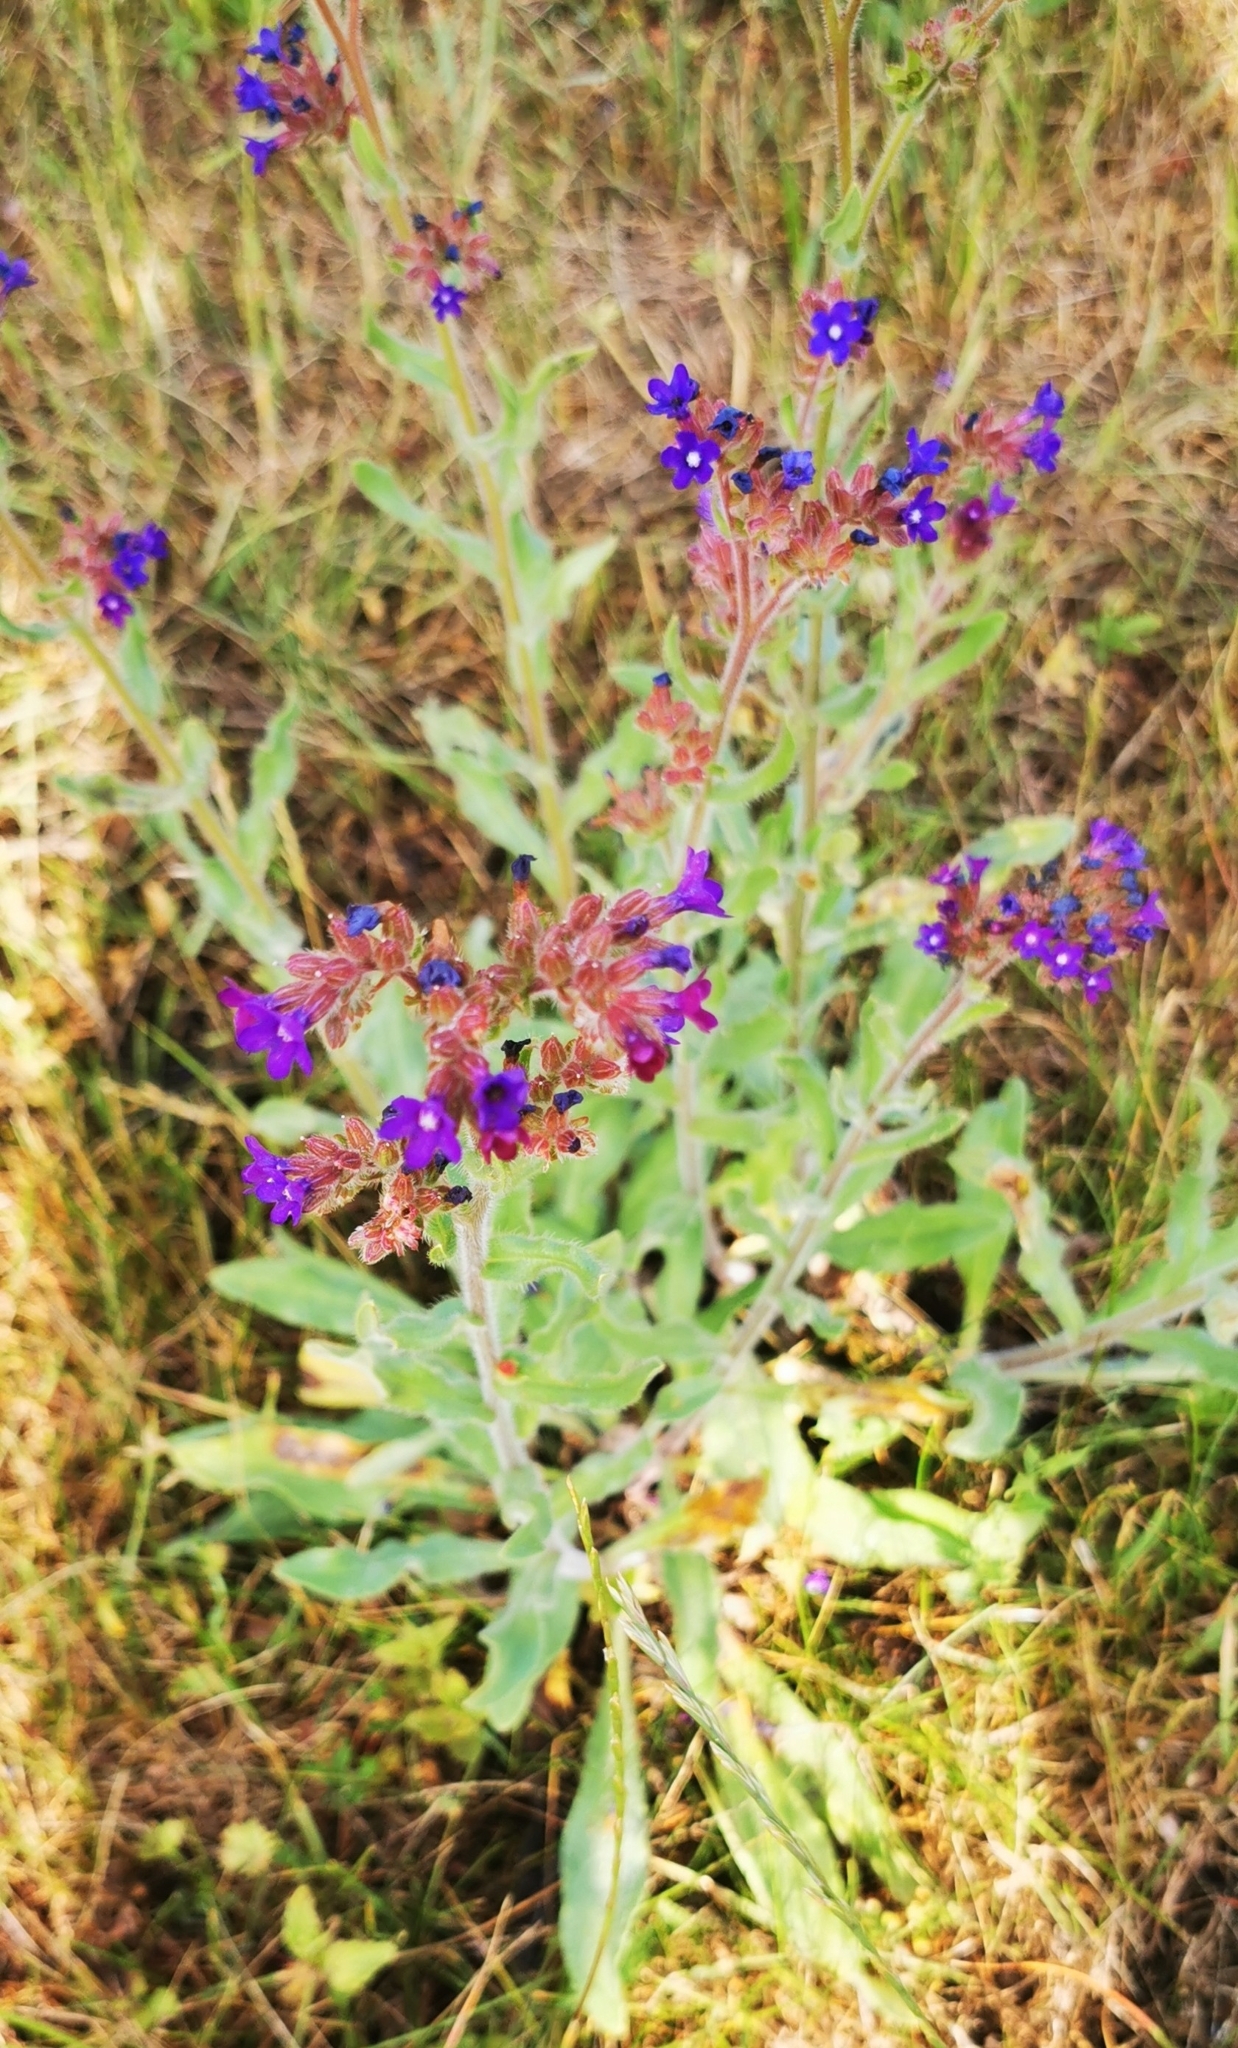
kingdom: Plantae
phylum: Tracheophyta
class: Magnoliopsida
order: Boraginales
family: Boraginaceae
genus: Anchusa
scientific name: Anchusa officinalis
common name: Alkanet
